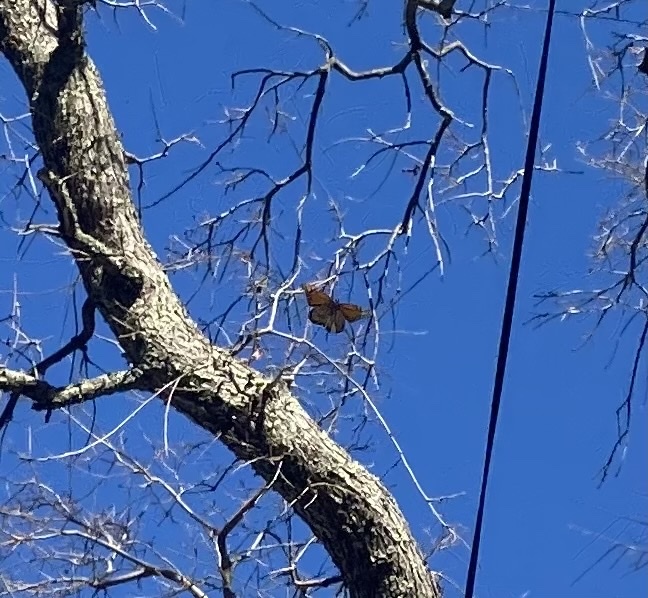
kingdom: Animalia
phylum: Arthropoda
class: Insecta
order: Lepidoptera
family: Nymphalidae
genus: Danaus
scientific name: Danaus plexippus
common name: Monarch
